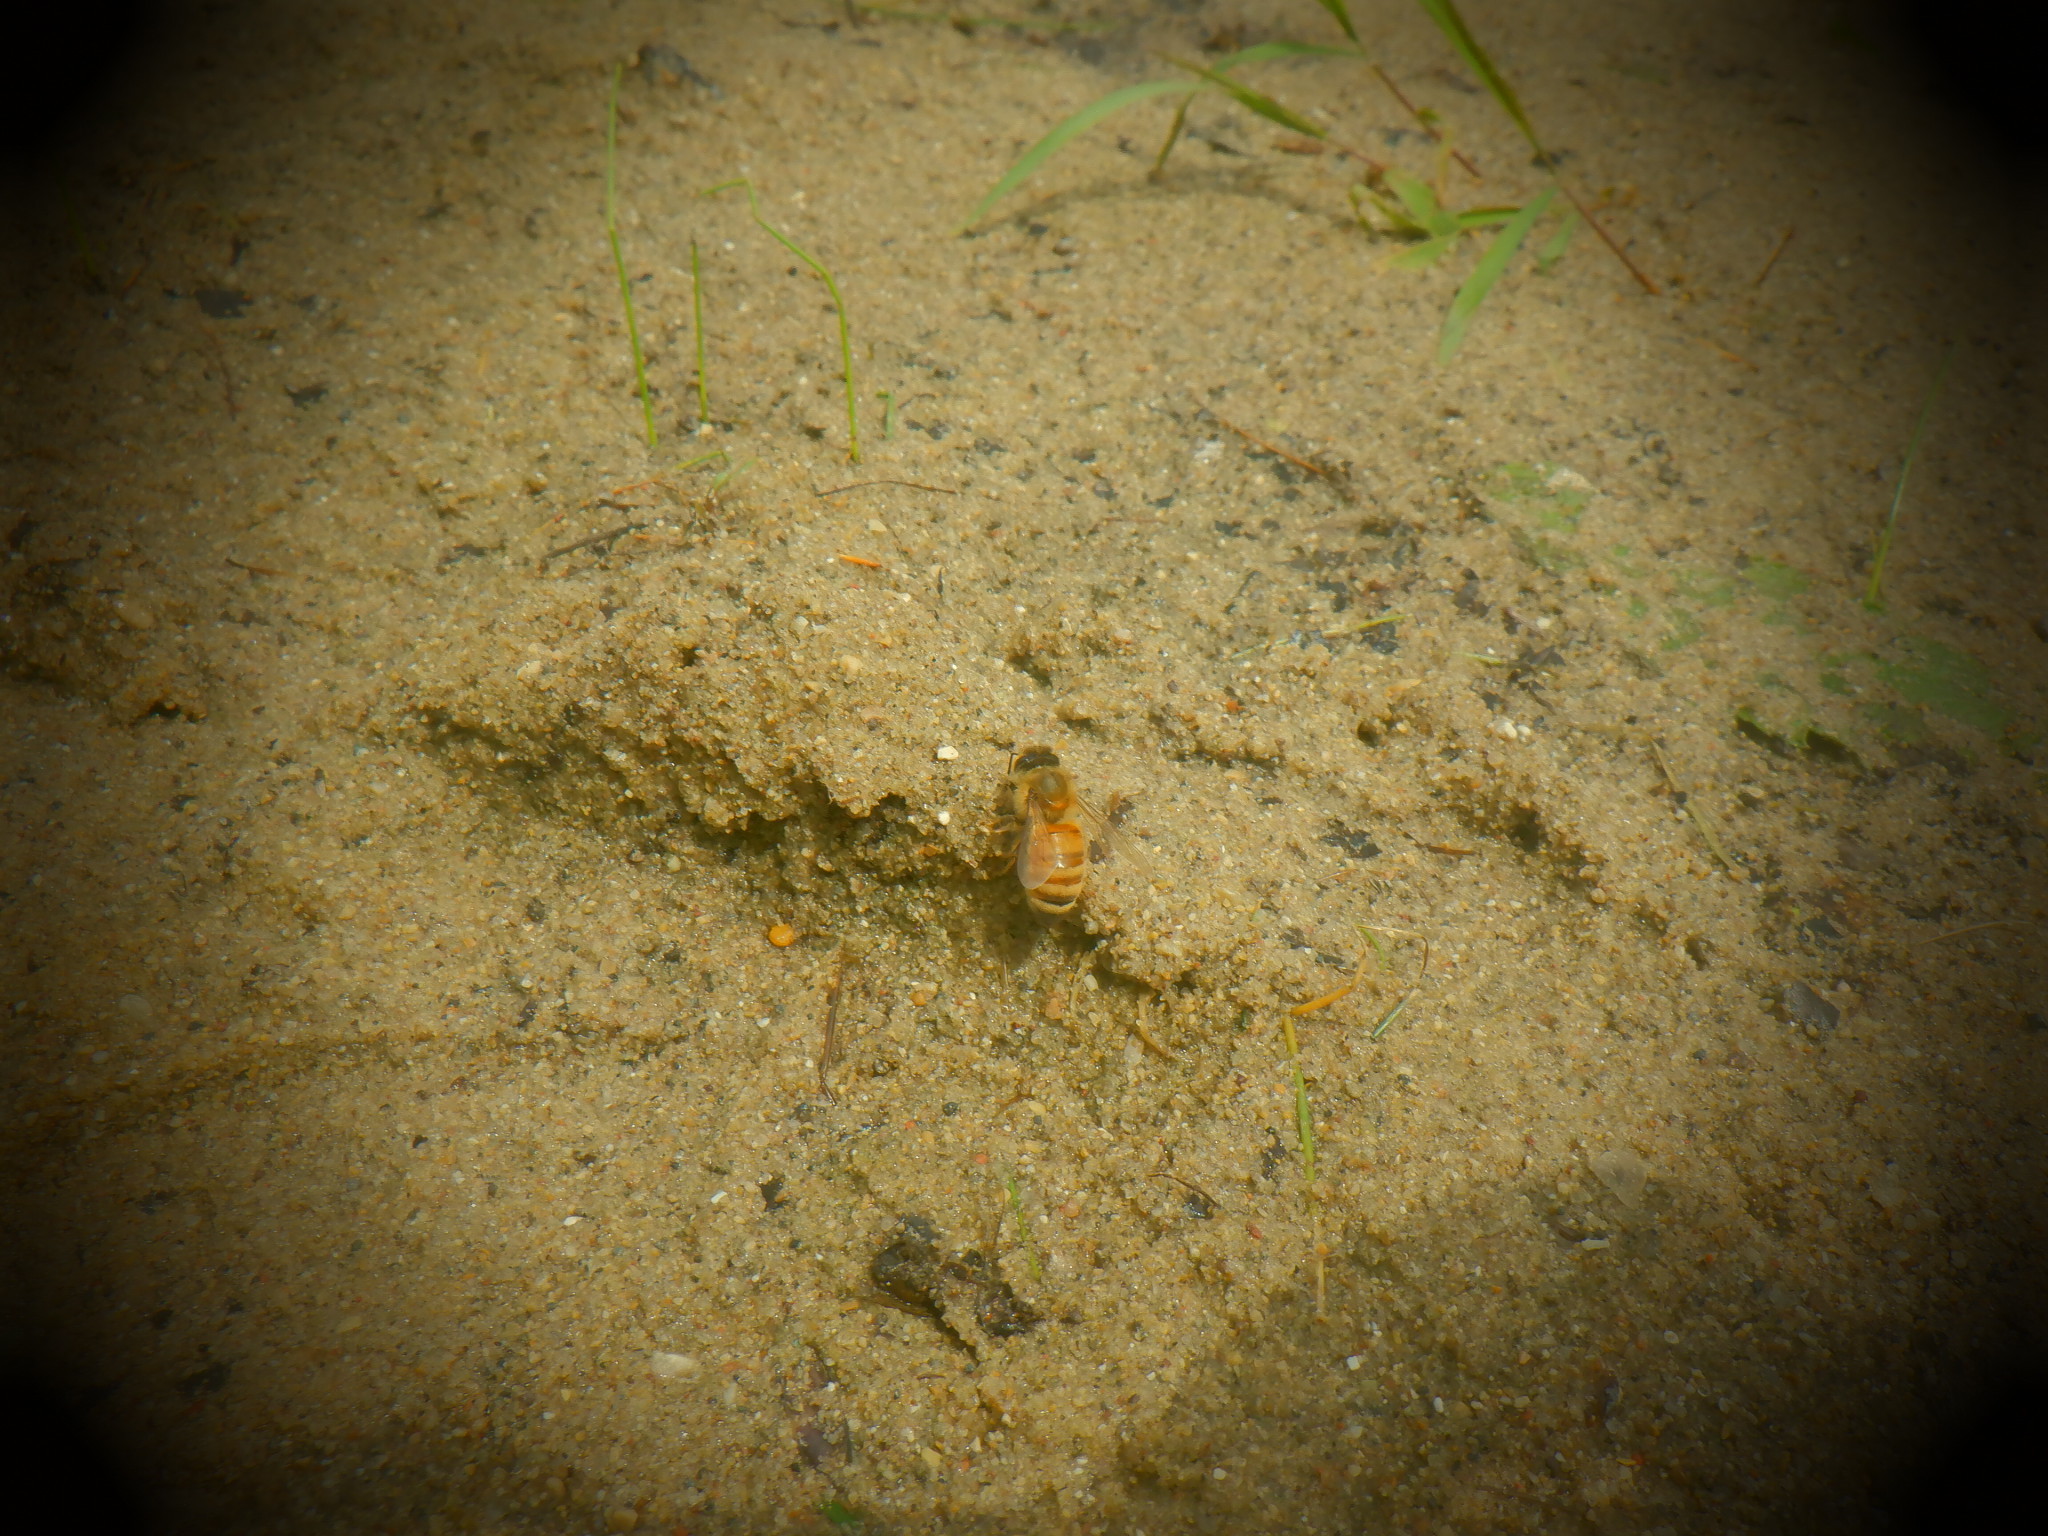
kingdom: Animalia
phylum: Arthropoda
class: Insecta
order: Hymenoptera
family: Apidae
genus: Apis
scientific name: Apis mellifera
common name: Honey bee
